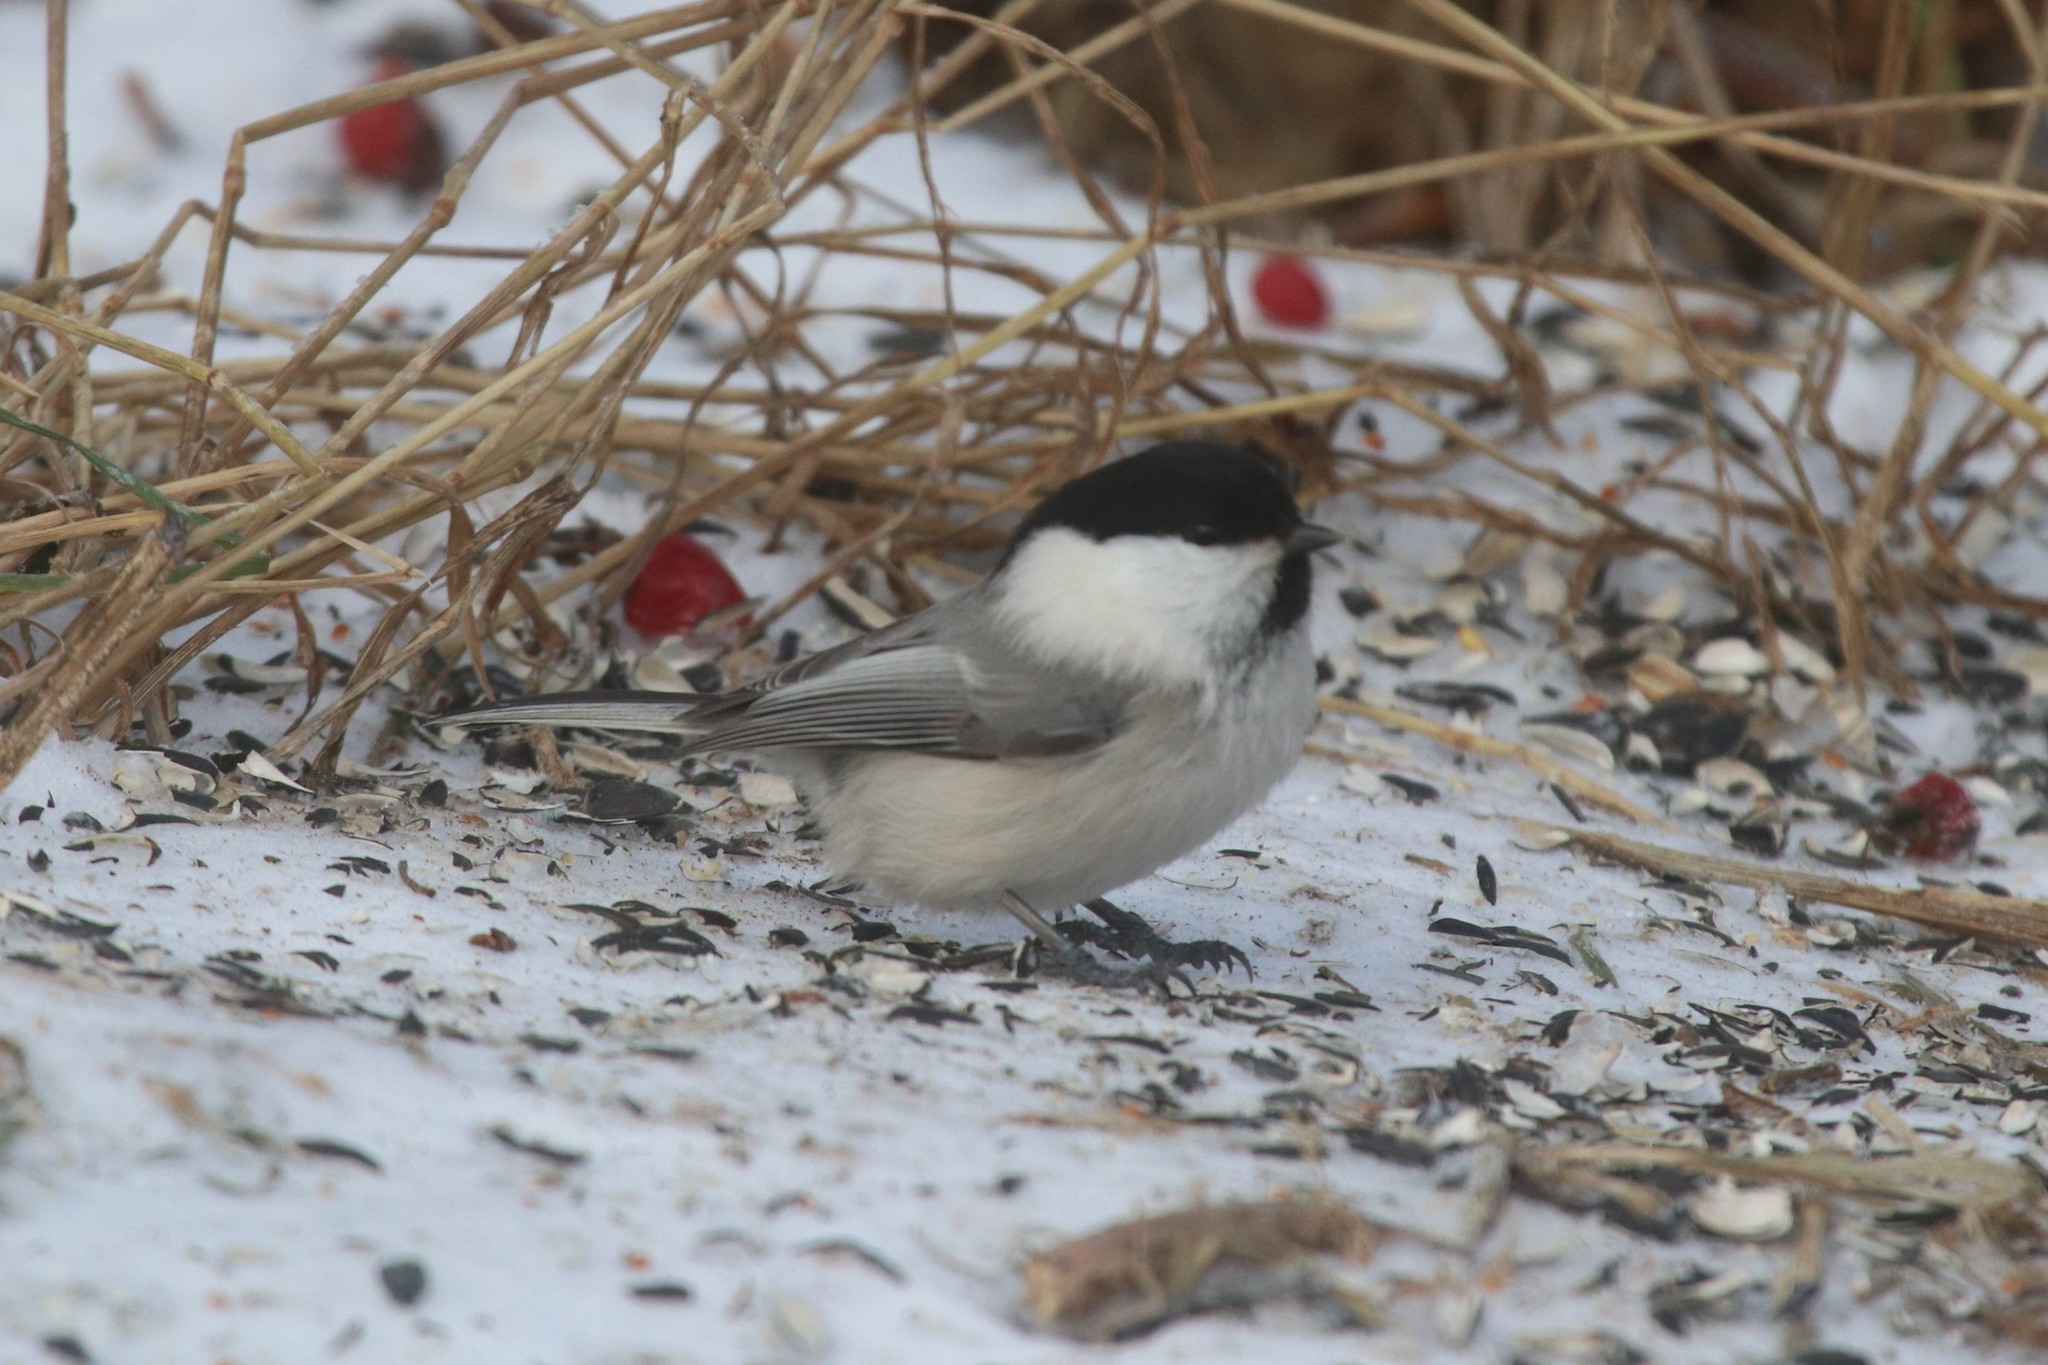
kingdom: Animalia
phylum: Chordata
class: Aves
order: Passeriformes
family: Paridae
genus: Poecile
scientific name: Poecile montanus
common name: Willow tit
